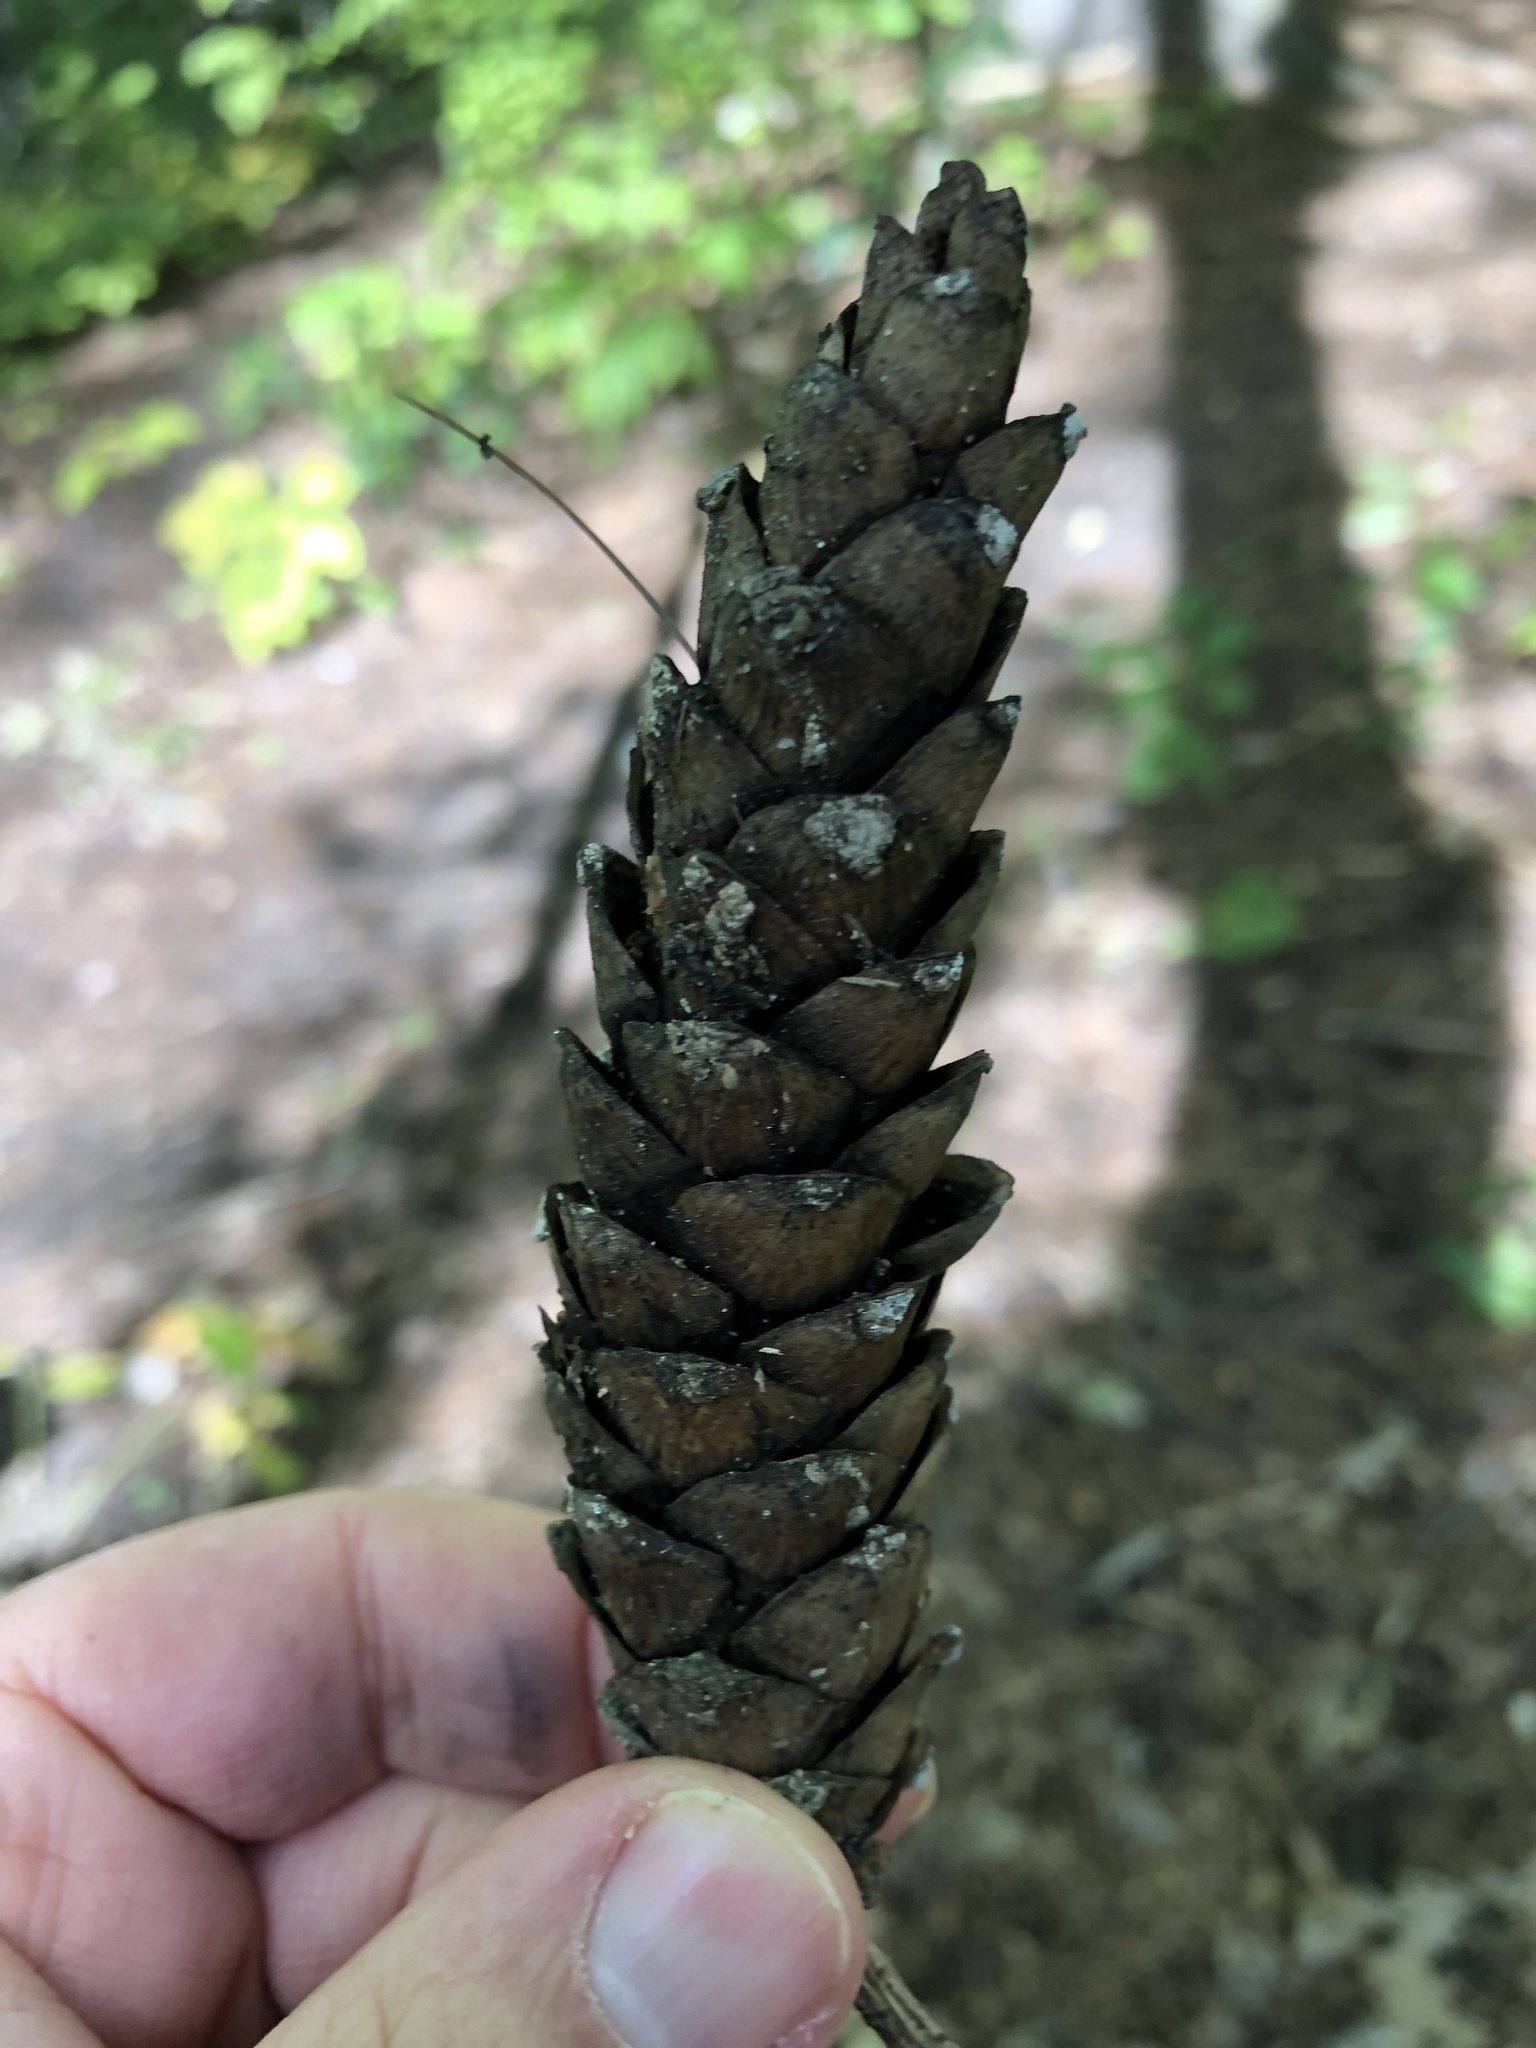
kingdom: Plantae
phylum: Tracheophyta
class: Pinopsida
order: Pinales
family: Pinaceae
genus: Pinus
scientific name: Pinus strobus
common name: Weymouth pine
